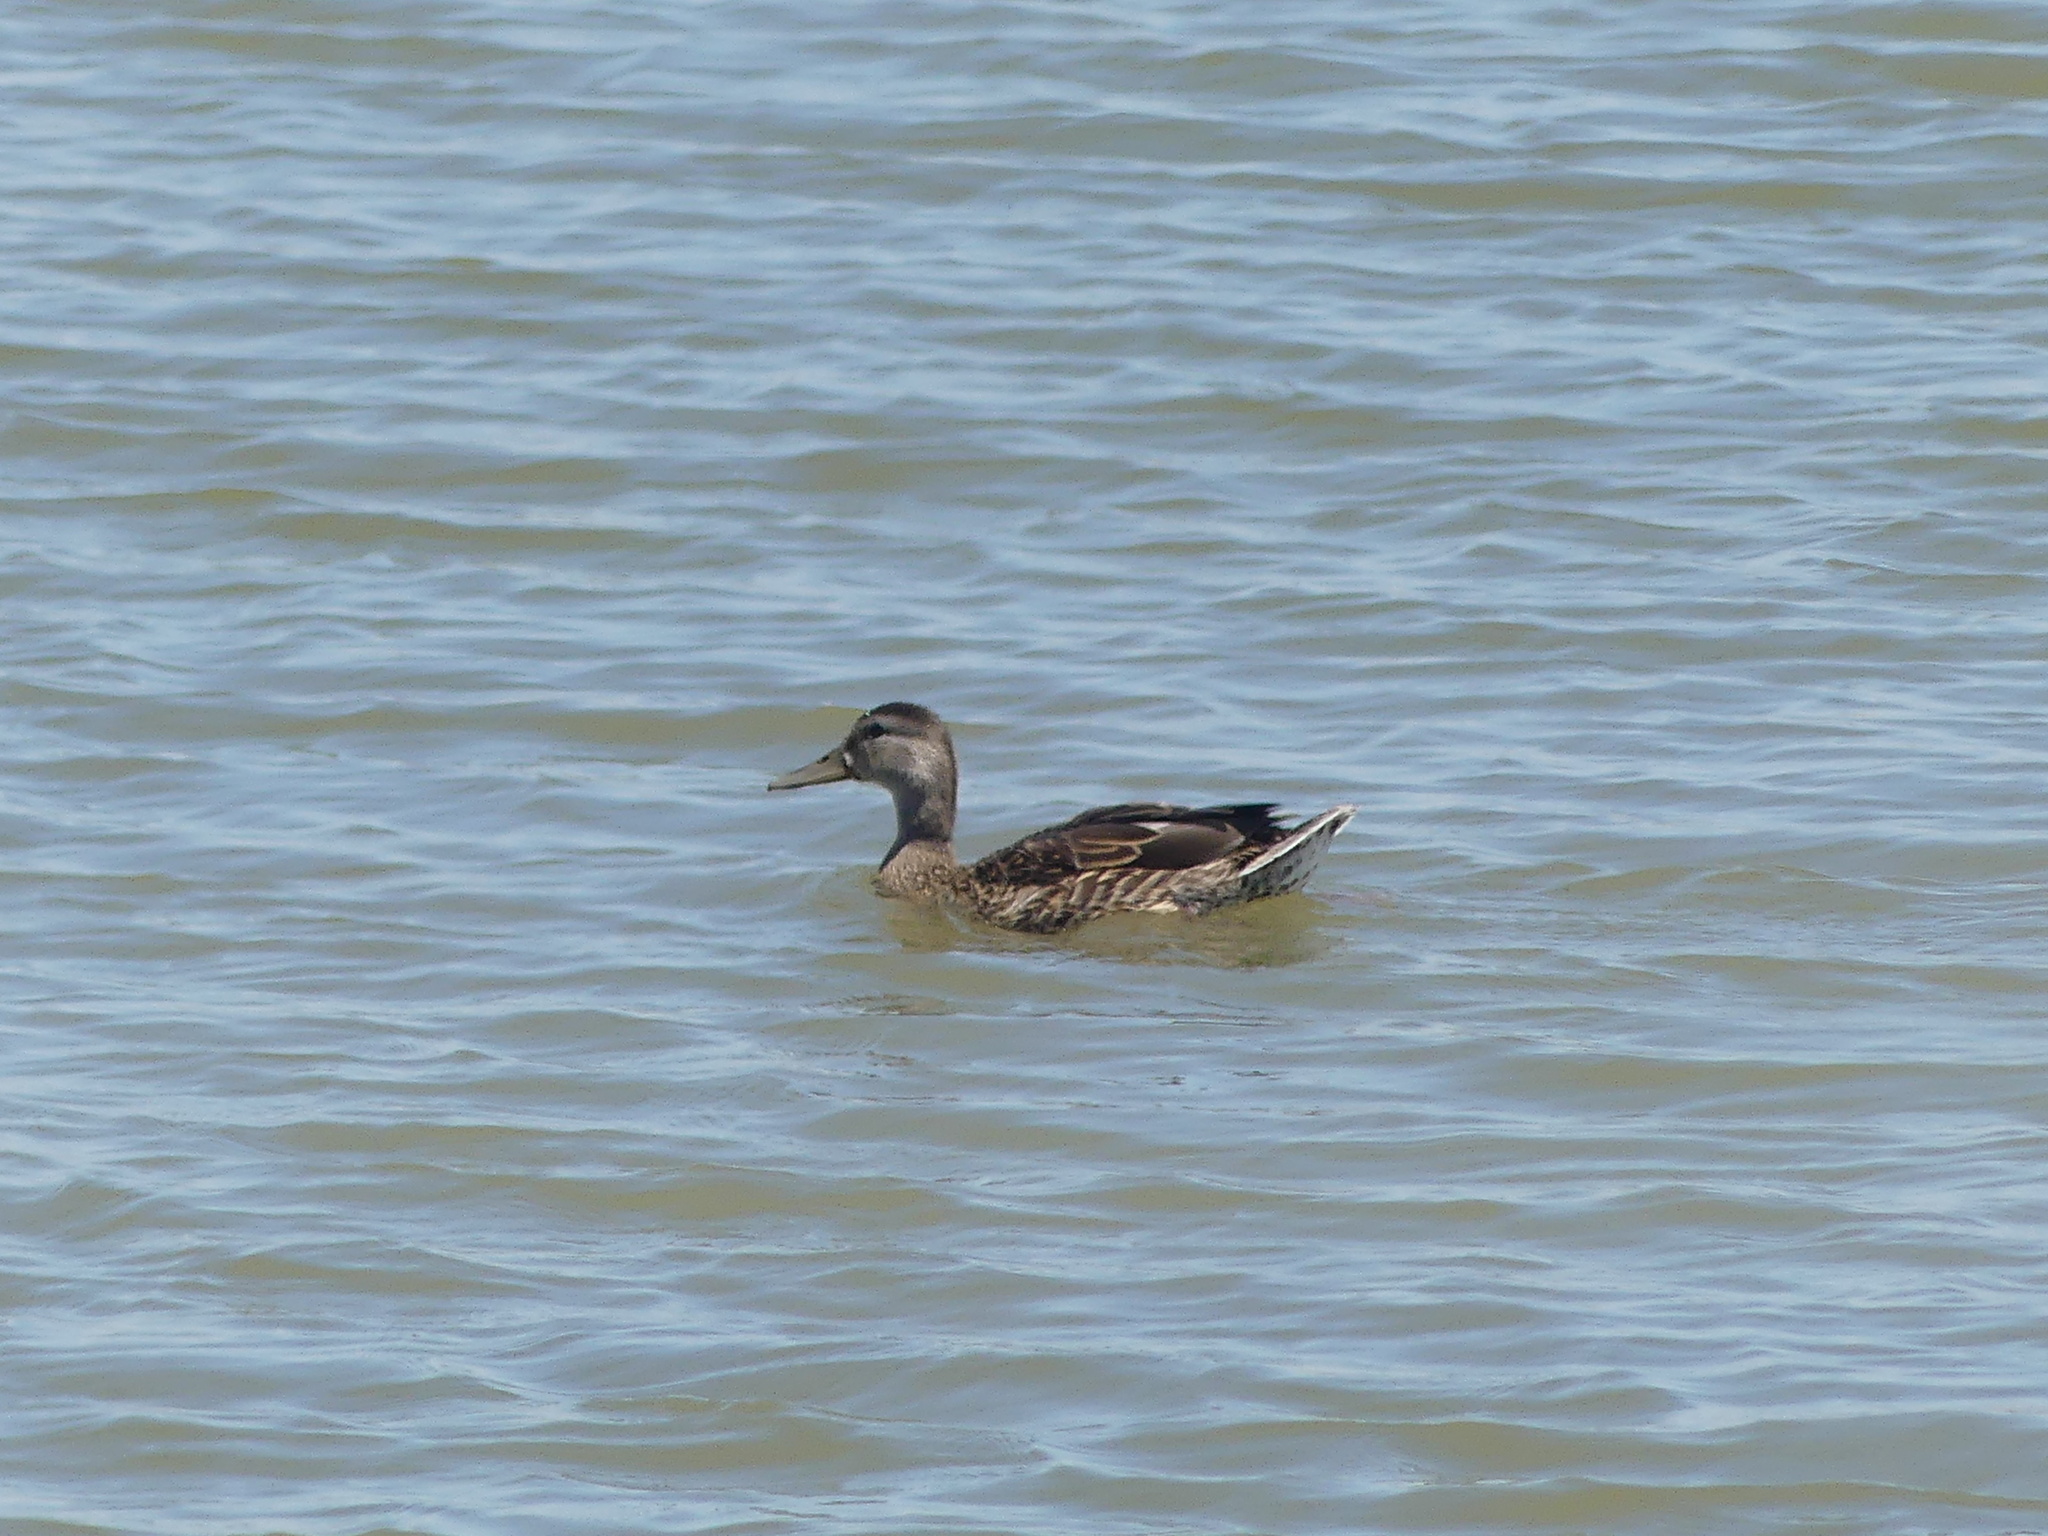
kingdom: Animalia
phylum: Chordata
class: Aves
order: Anseriformes
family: Anatidae
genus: Anas
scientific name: Anas platyrhynchos
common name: Mallard
